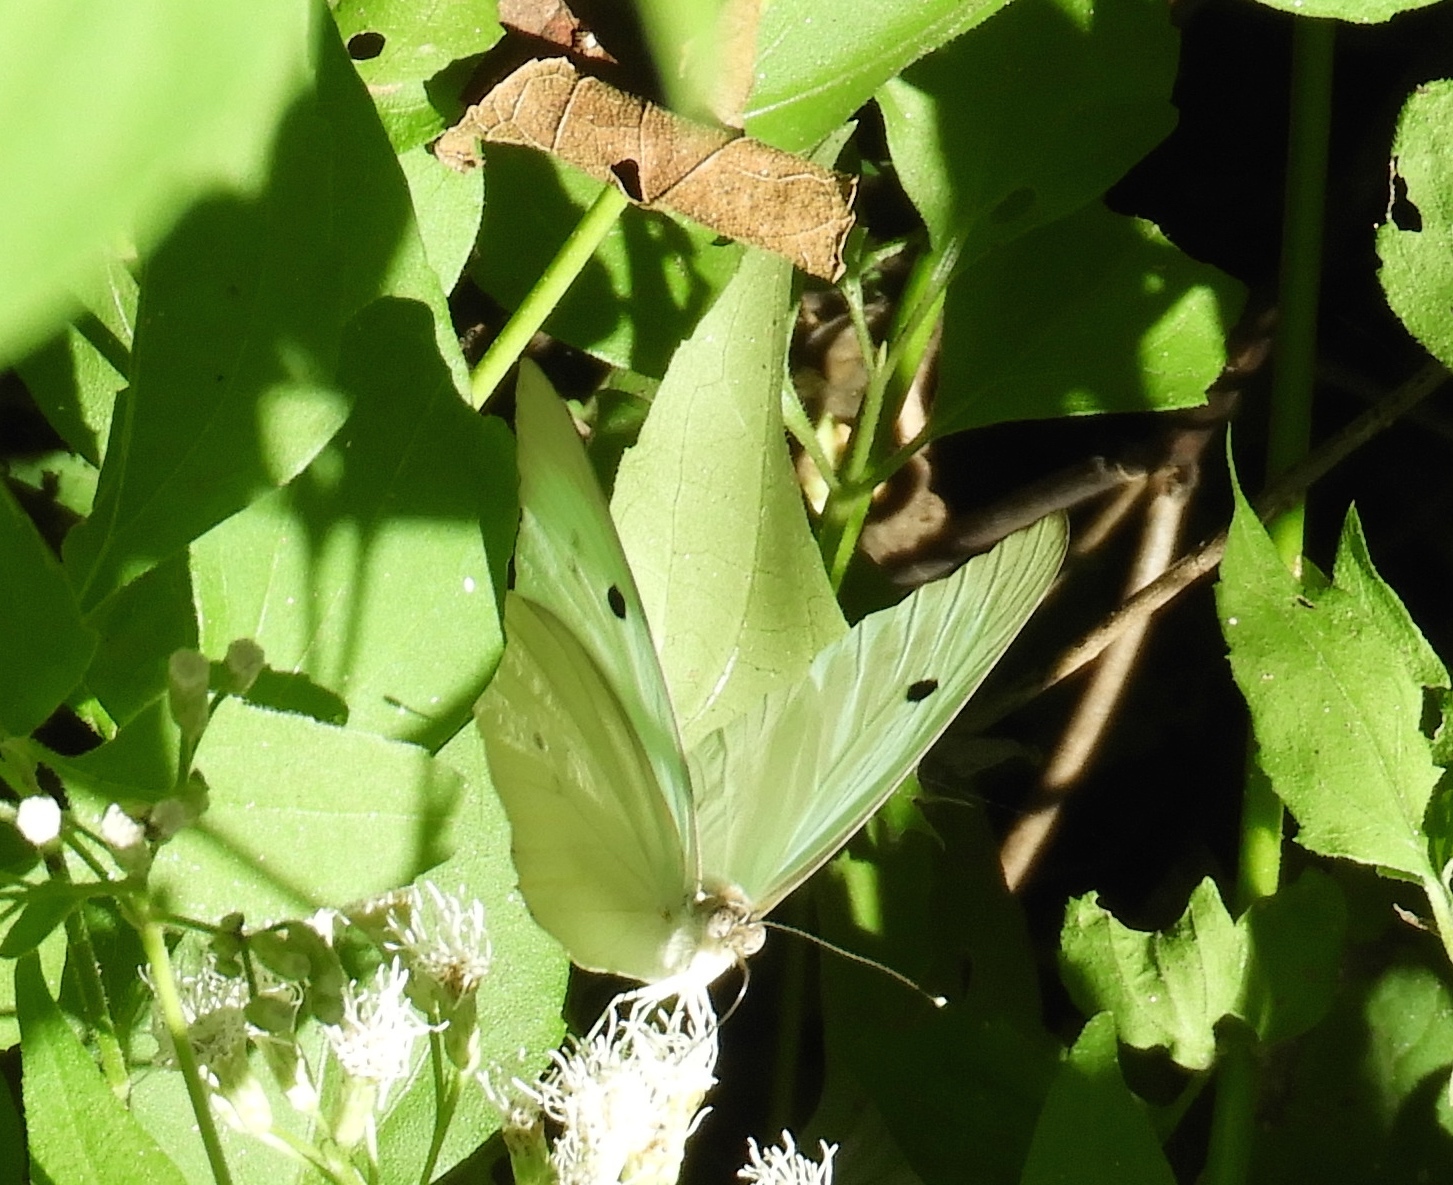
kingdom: Animalia
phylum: Arthropoda
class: Insecta
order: Lepidoptera
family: Pieridae
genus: Ganyra
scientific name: Ganyra josephina
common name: Giant white
